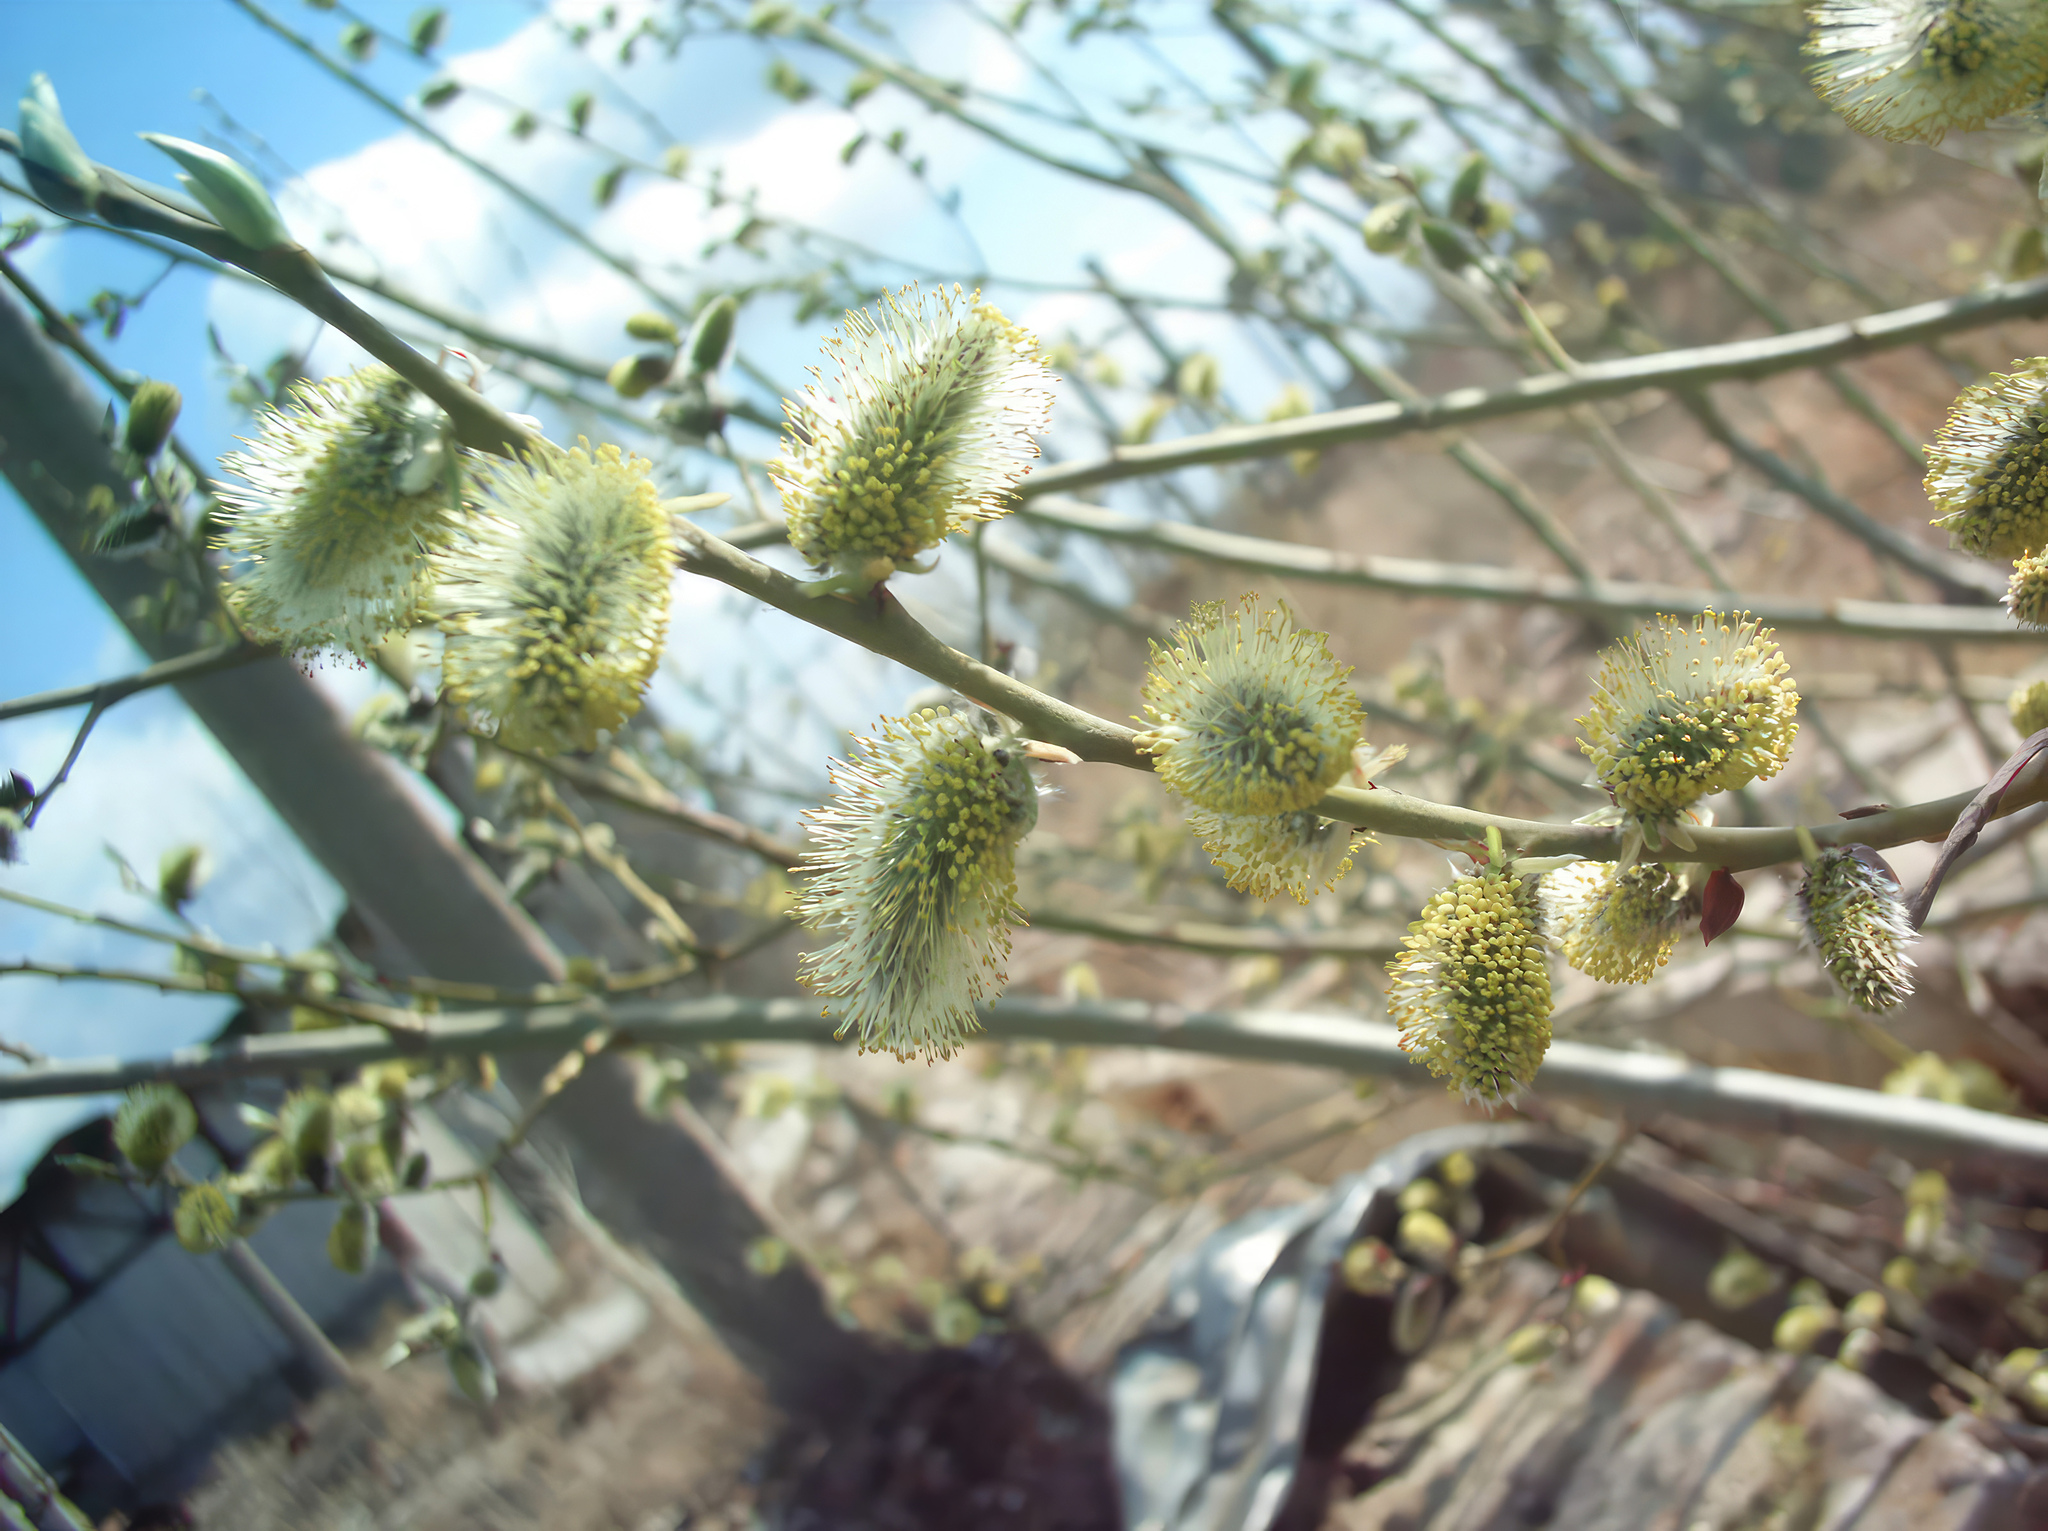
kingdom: Plantae
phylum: Tracheophyta
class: Magnoliopsida
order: Malpighiales
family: Salicaceae
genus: Salix
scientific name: Salix caprea
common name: Goat willow
